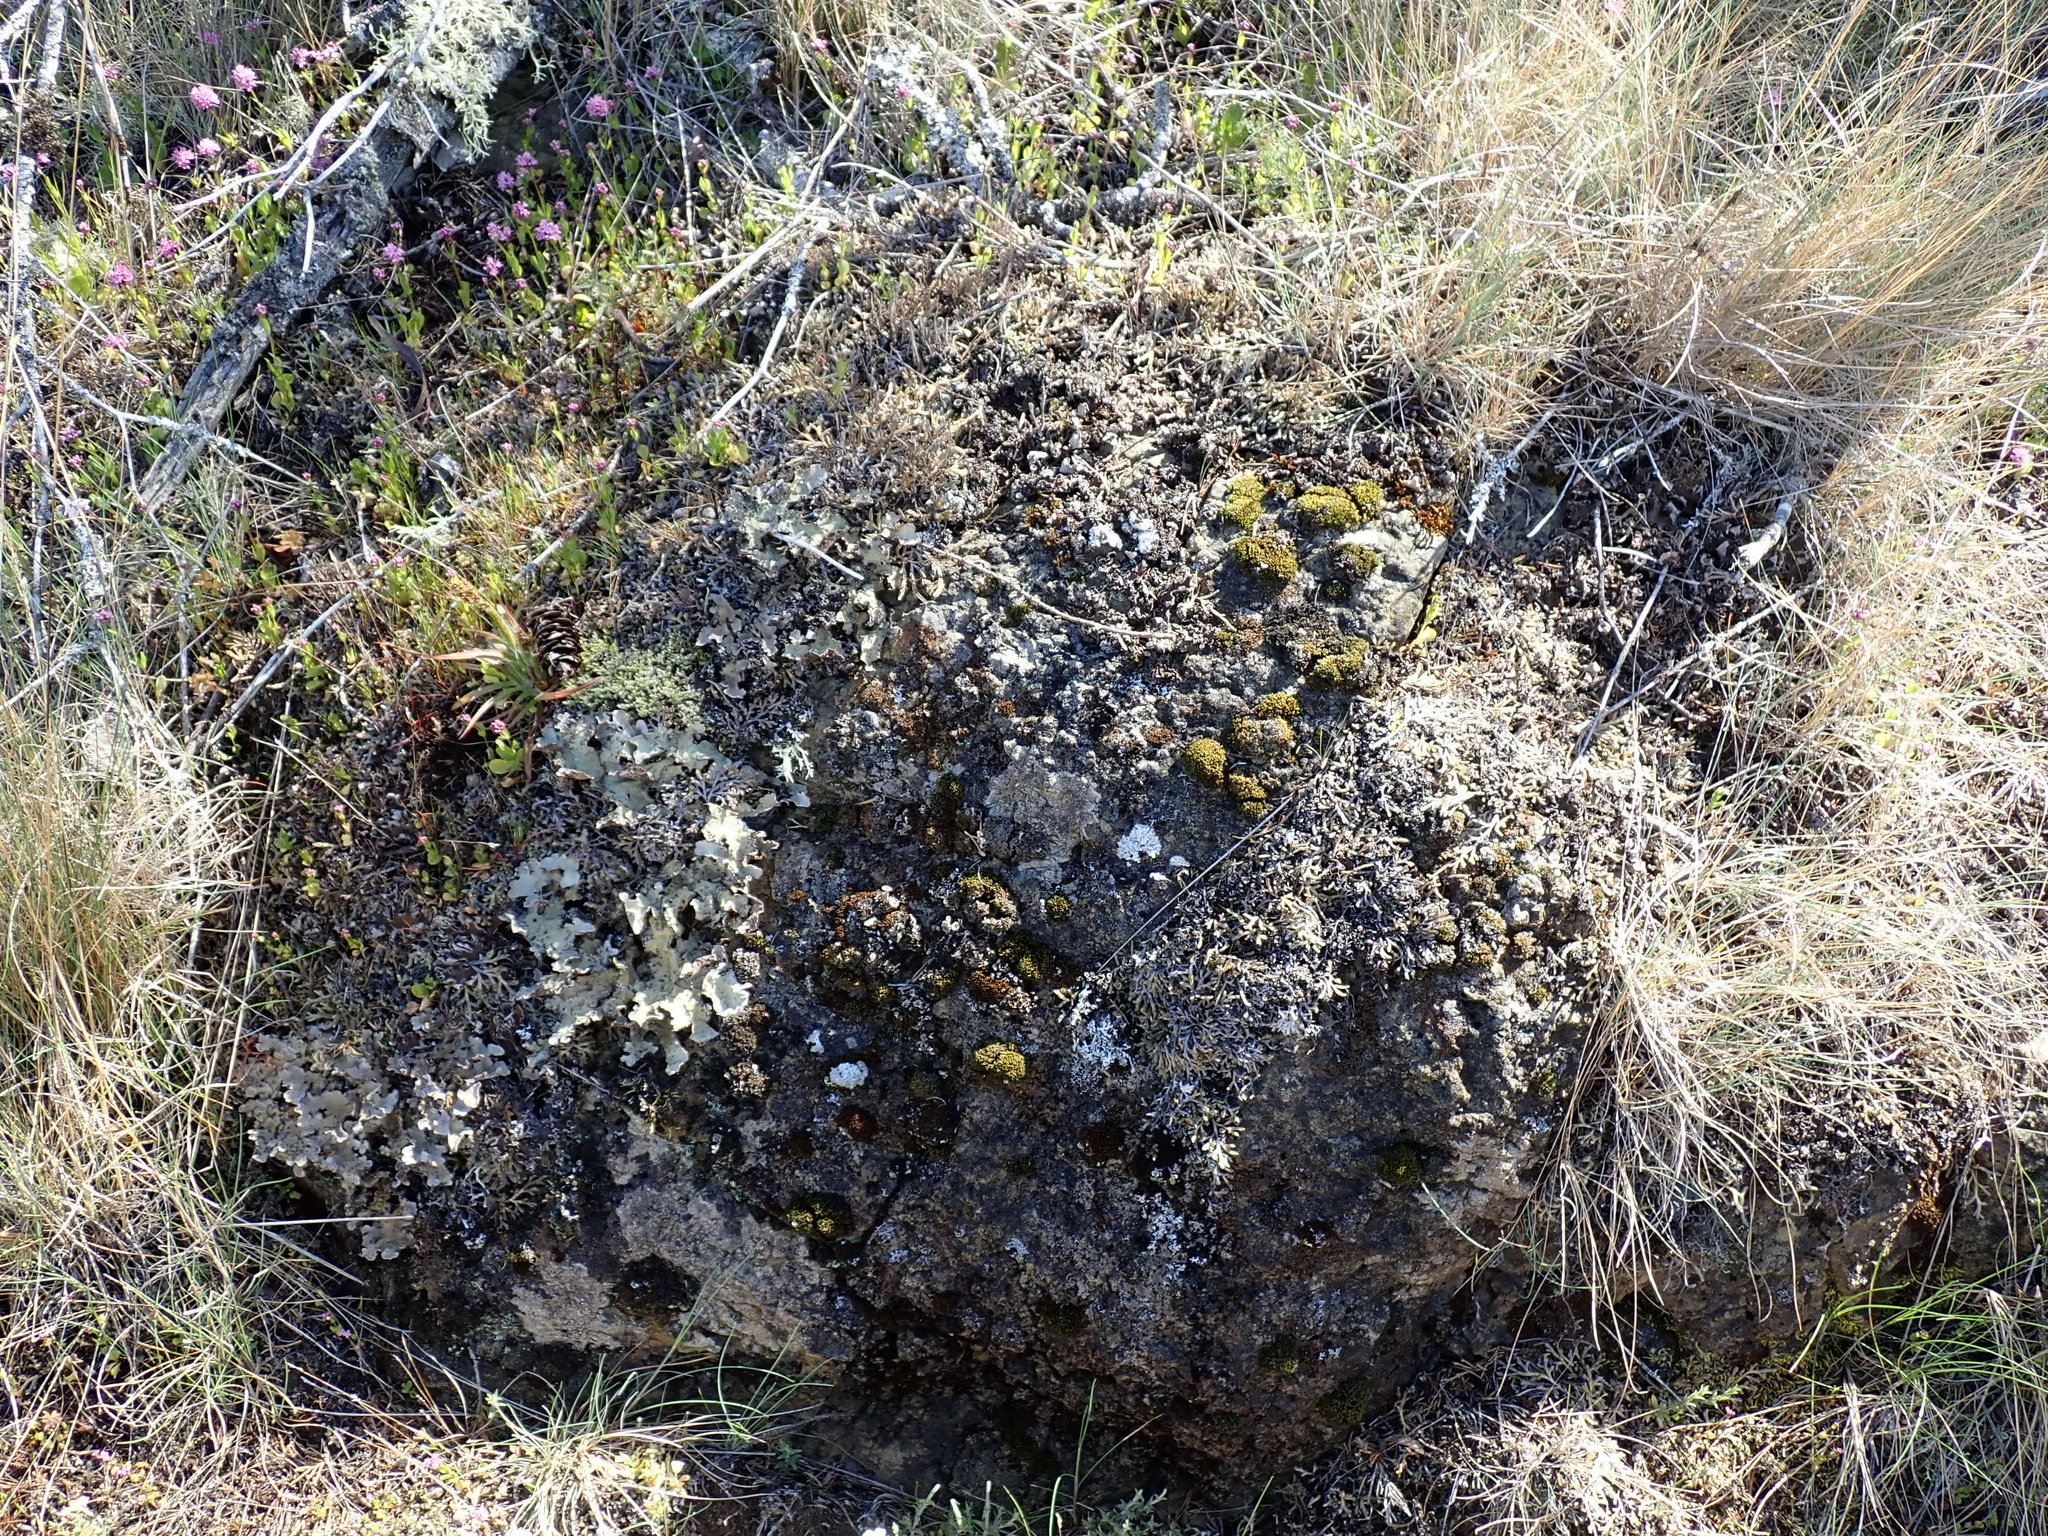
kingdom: Plantae
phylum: Tracheophyta
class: Lycopodiopsida
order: Selaginellales
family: Selaginellaceae
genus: Selaginella
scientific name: Selaginella wallacei
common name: Wallace's selaginella
